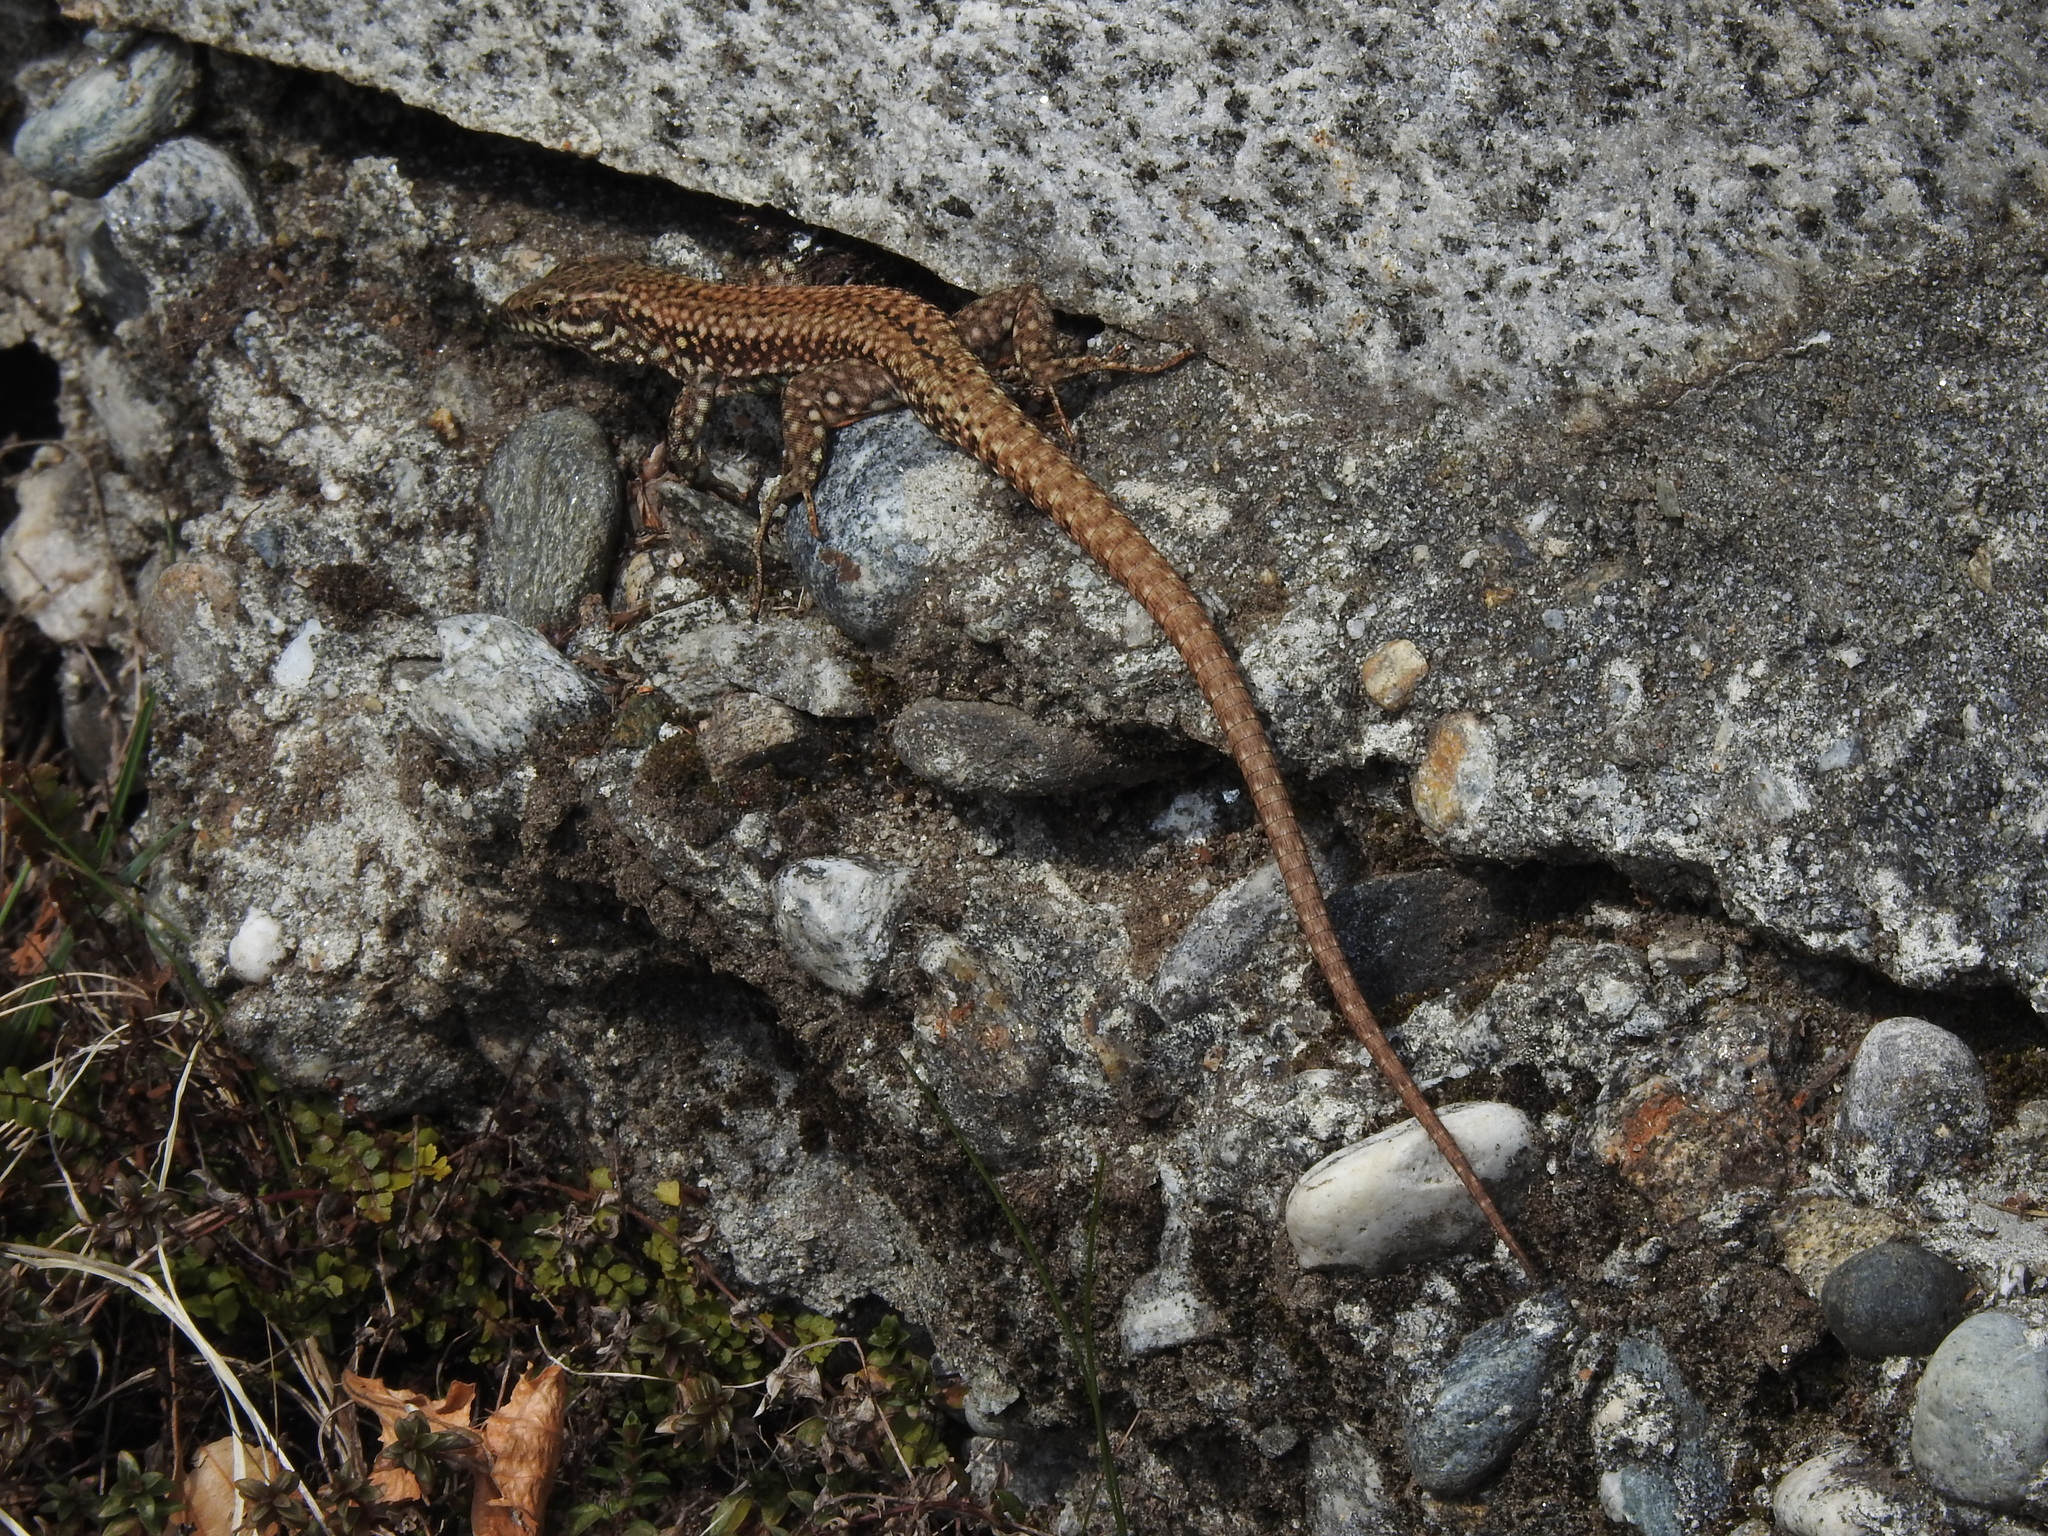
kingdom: Animalia
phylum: Chordata
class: Squamata
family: Lacertidae
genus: Podarcis
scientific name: Podarcis muralis
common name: Common wall lizard
